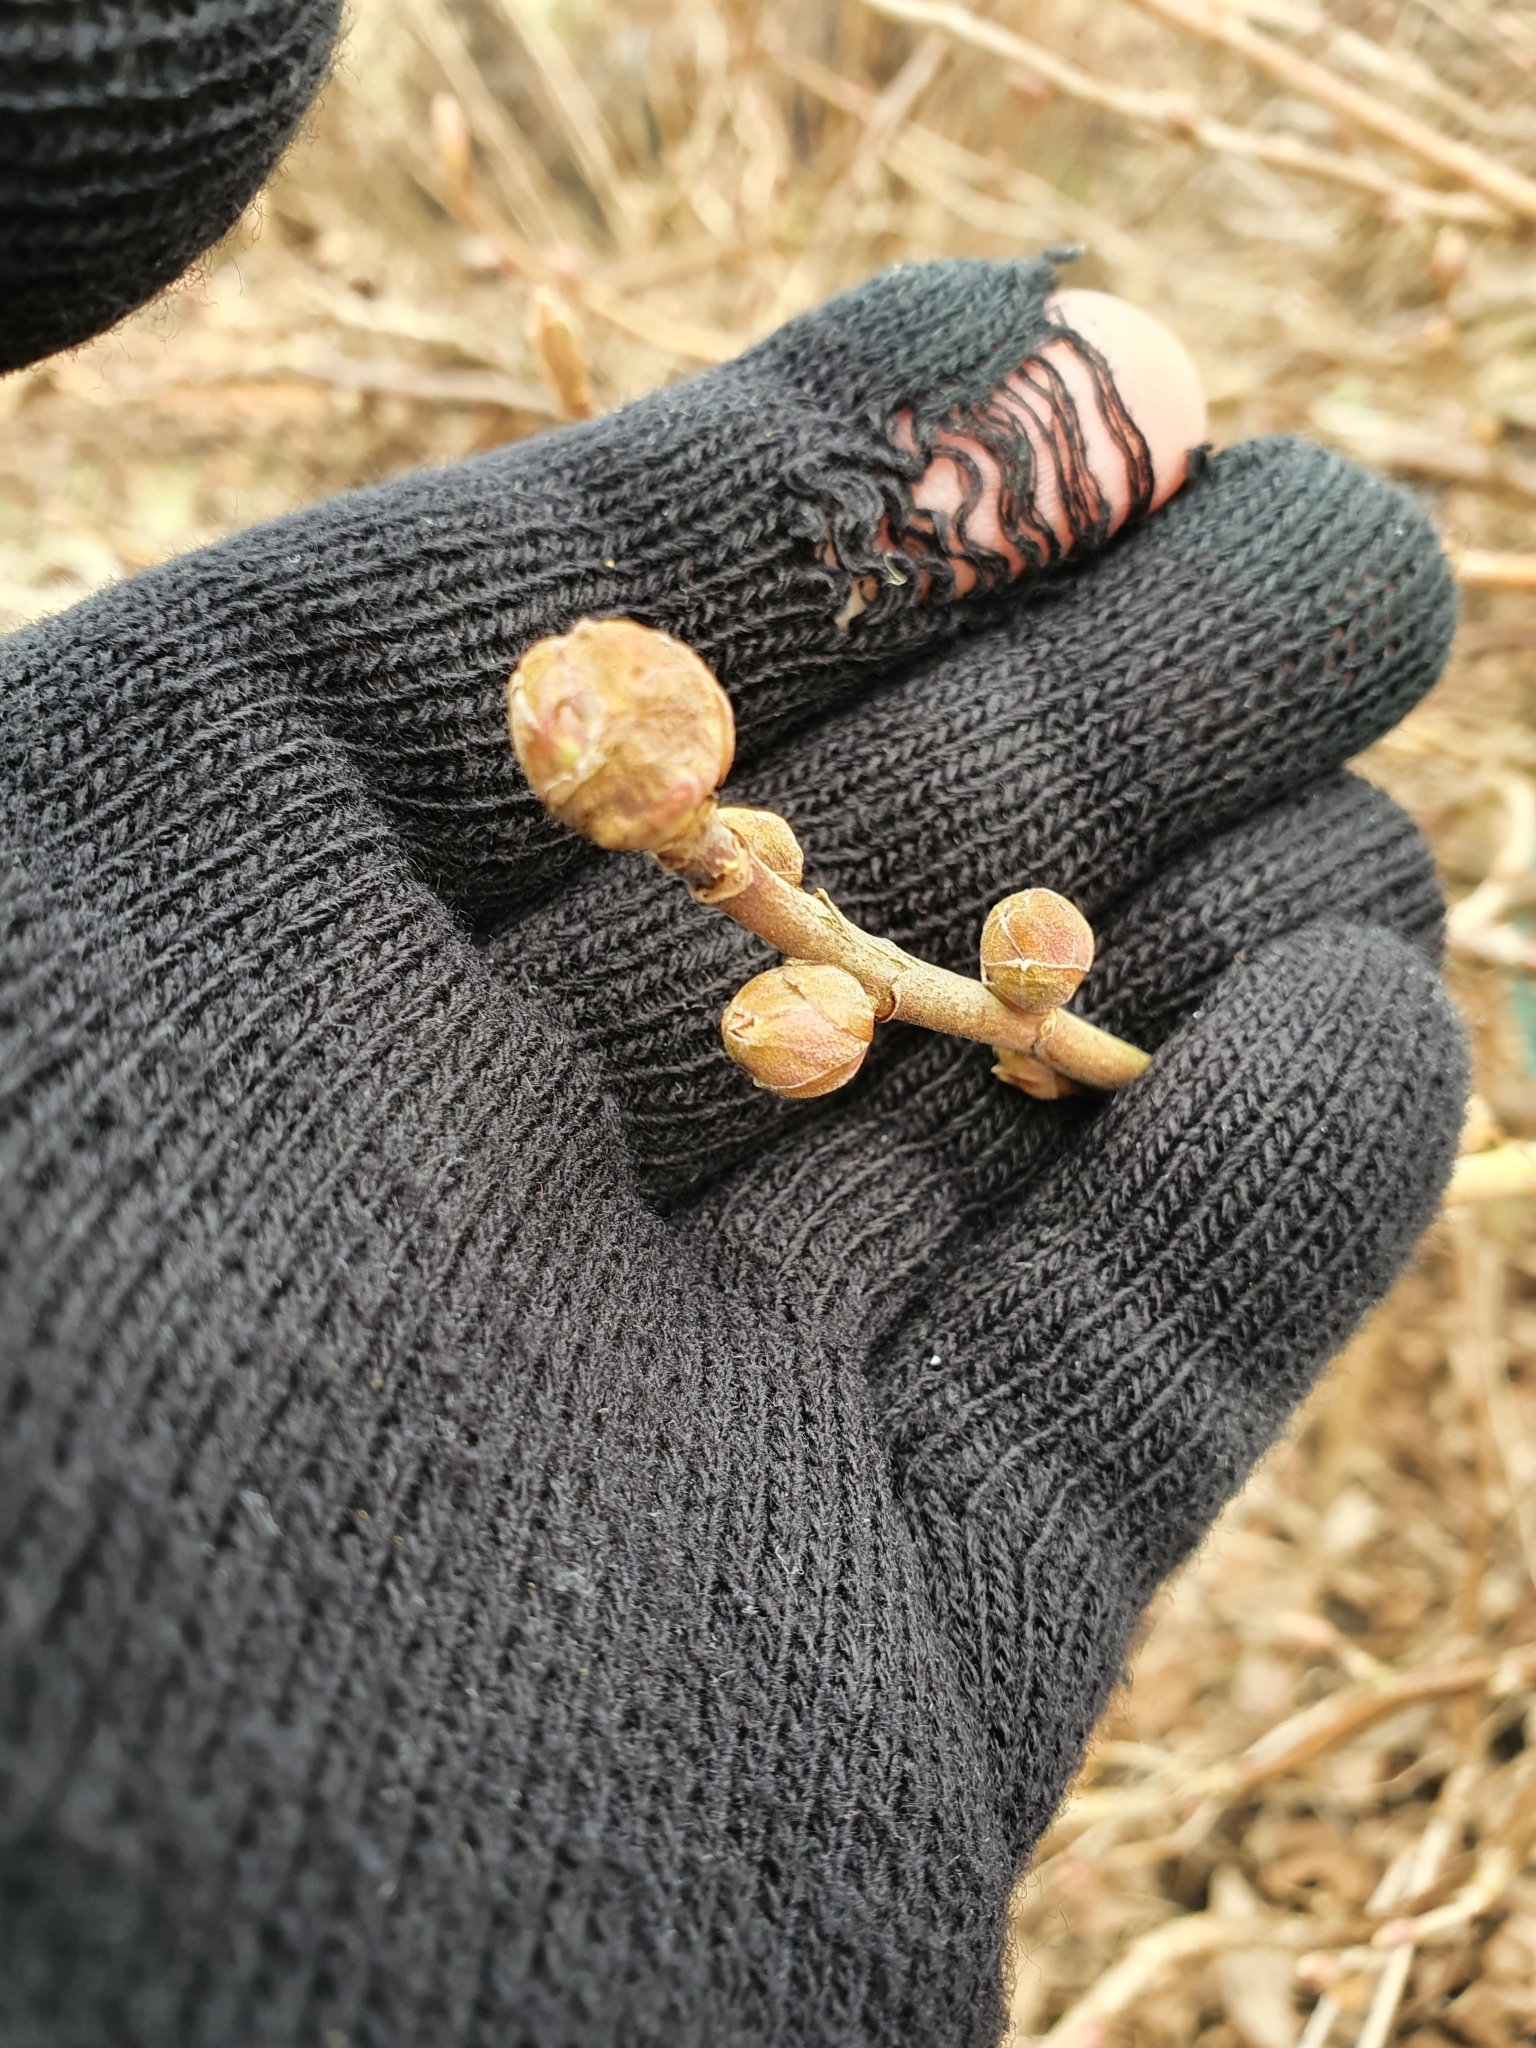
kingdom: Animalia
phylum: Arthropoda
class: Arachnida
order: Trombidiformes
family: Eriophyidae
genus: Cecidophyopsis
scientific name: Cecidophyopsis ribis
